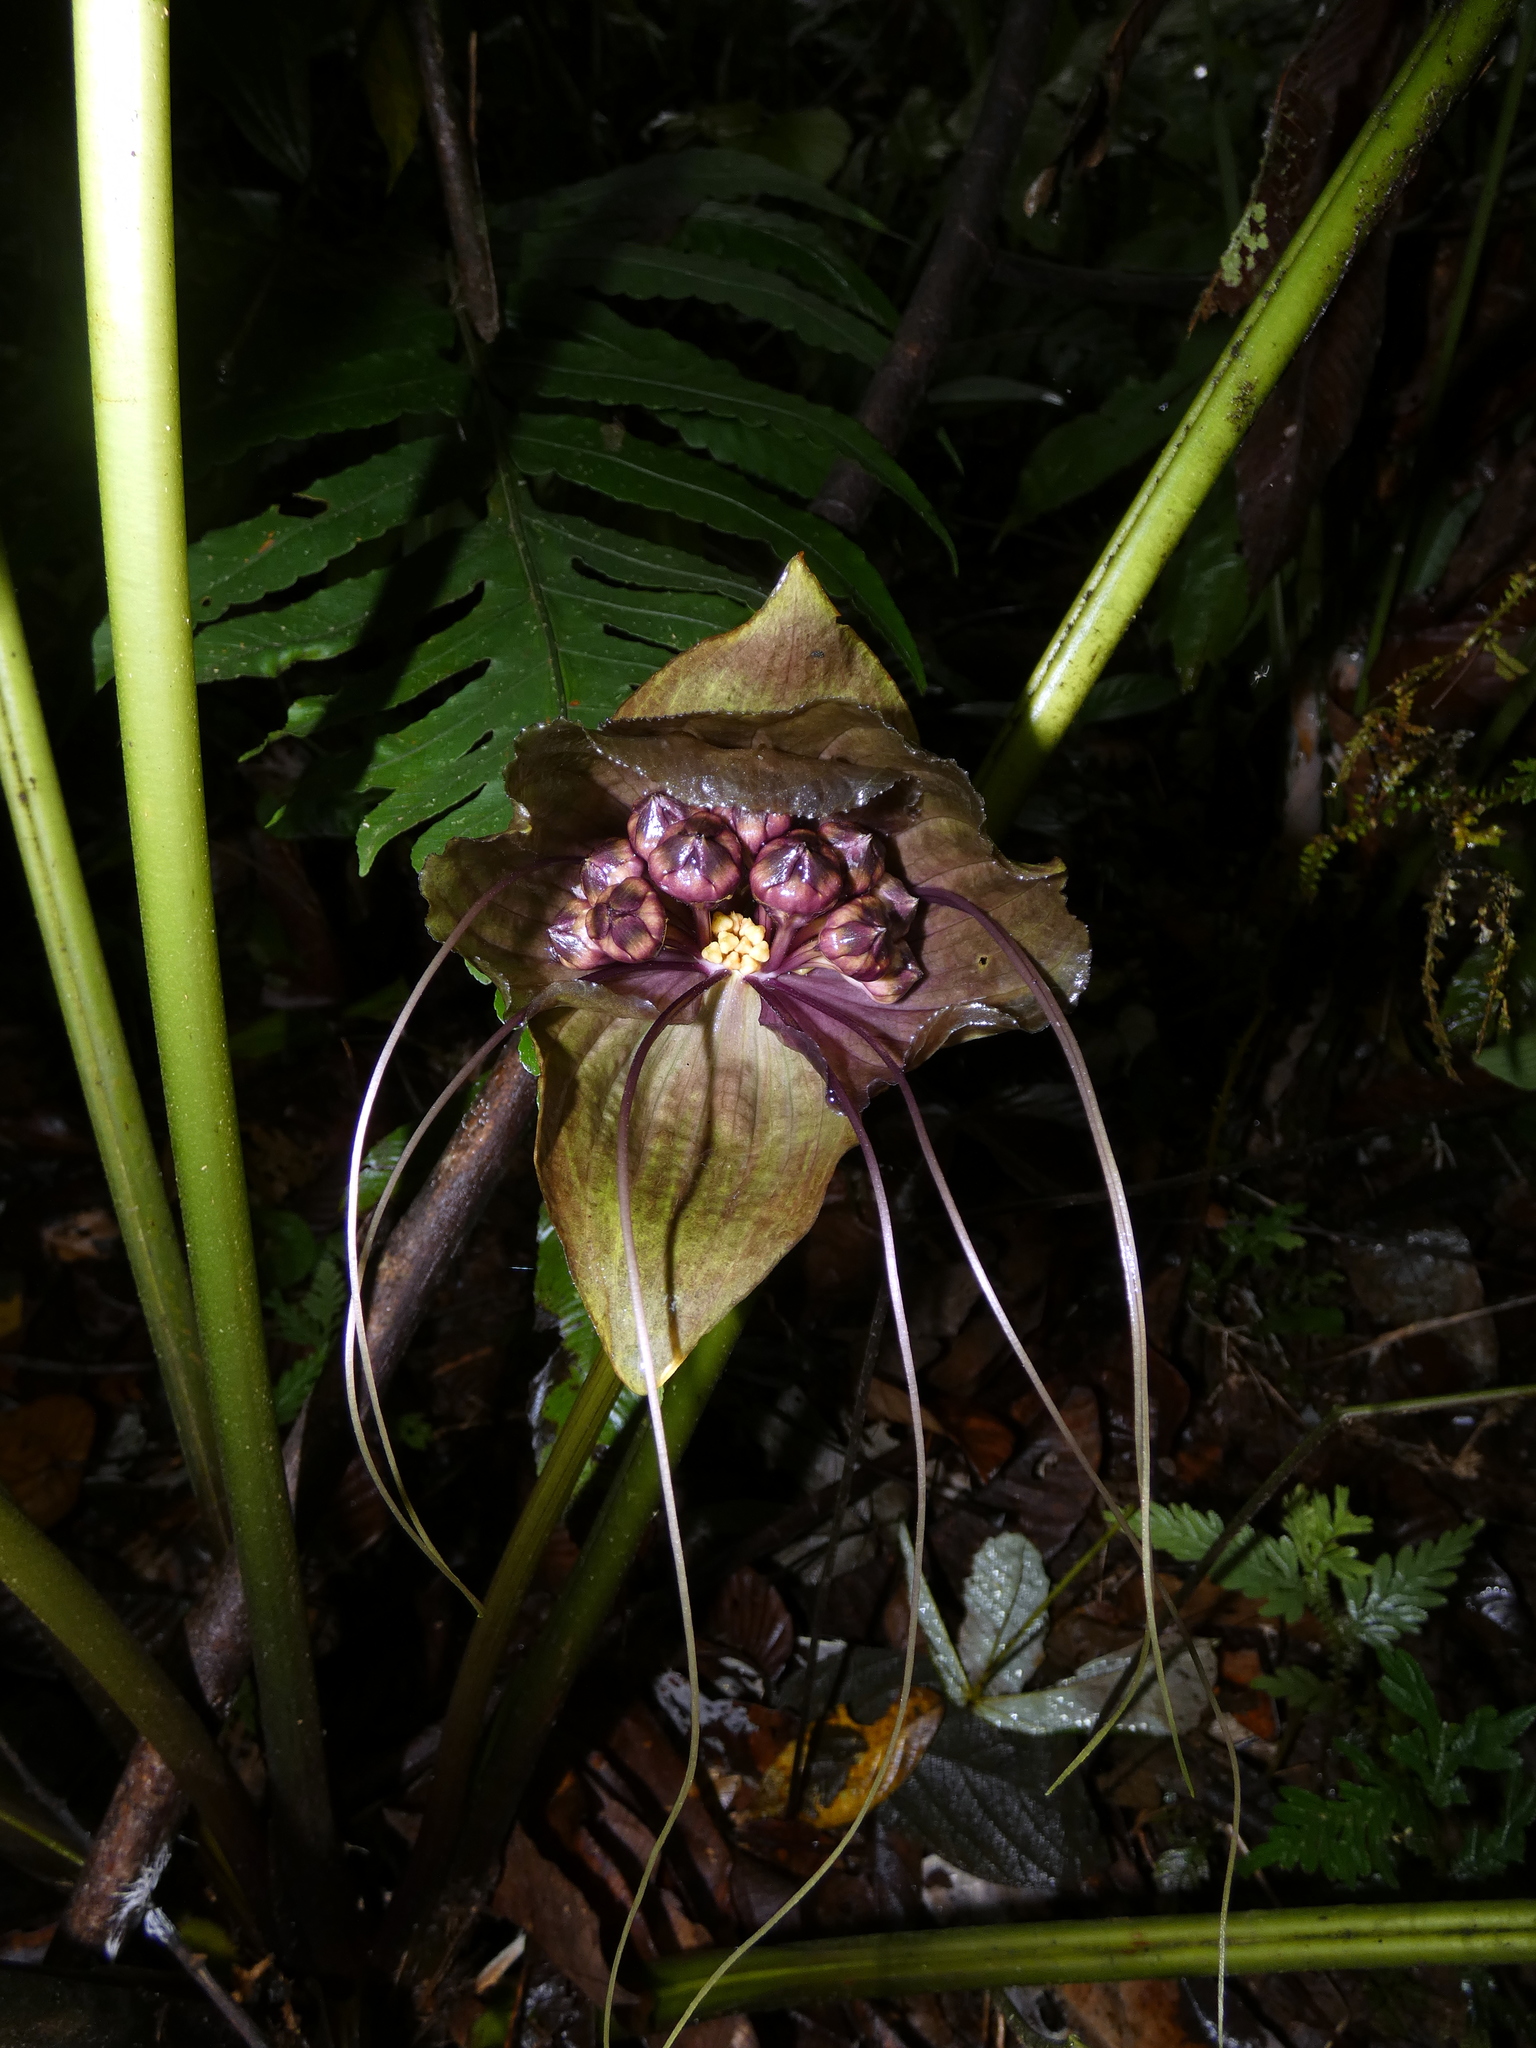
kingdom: Plantae
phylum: Tracheophyta
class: Liliopsida
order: Dioscoreales
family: Dioscoreaceae
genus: Tacca
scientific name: Tacca borneensis
